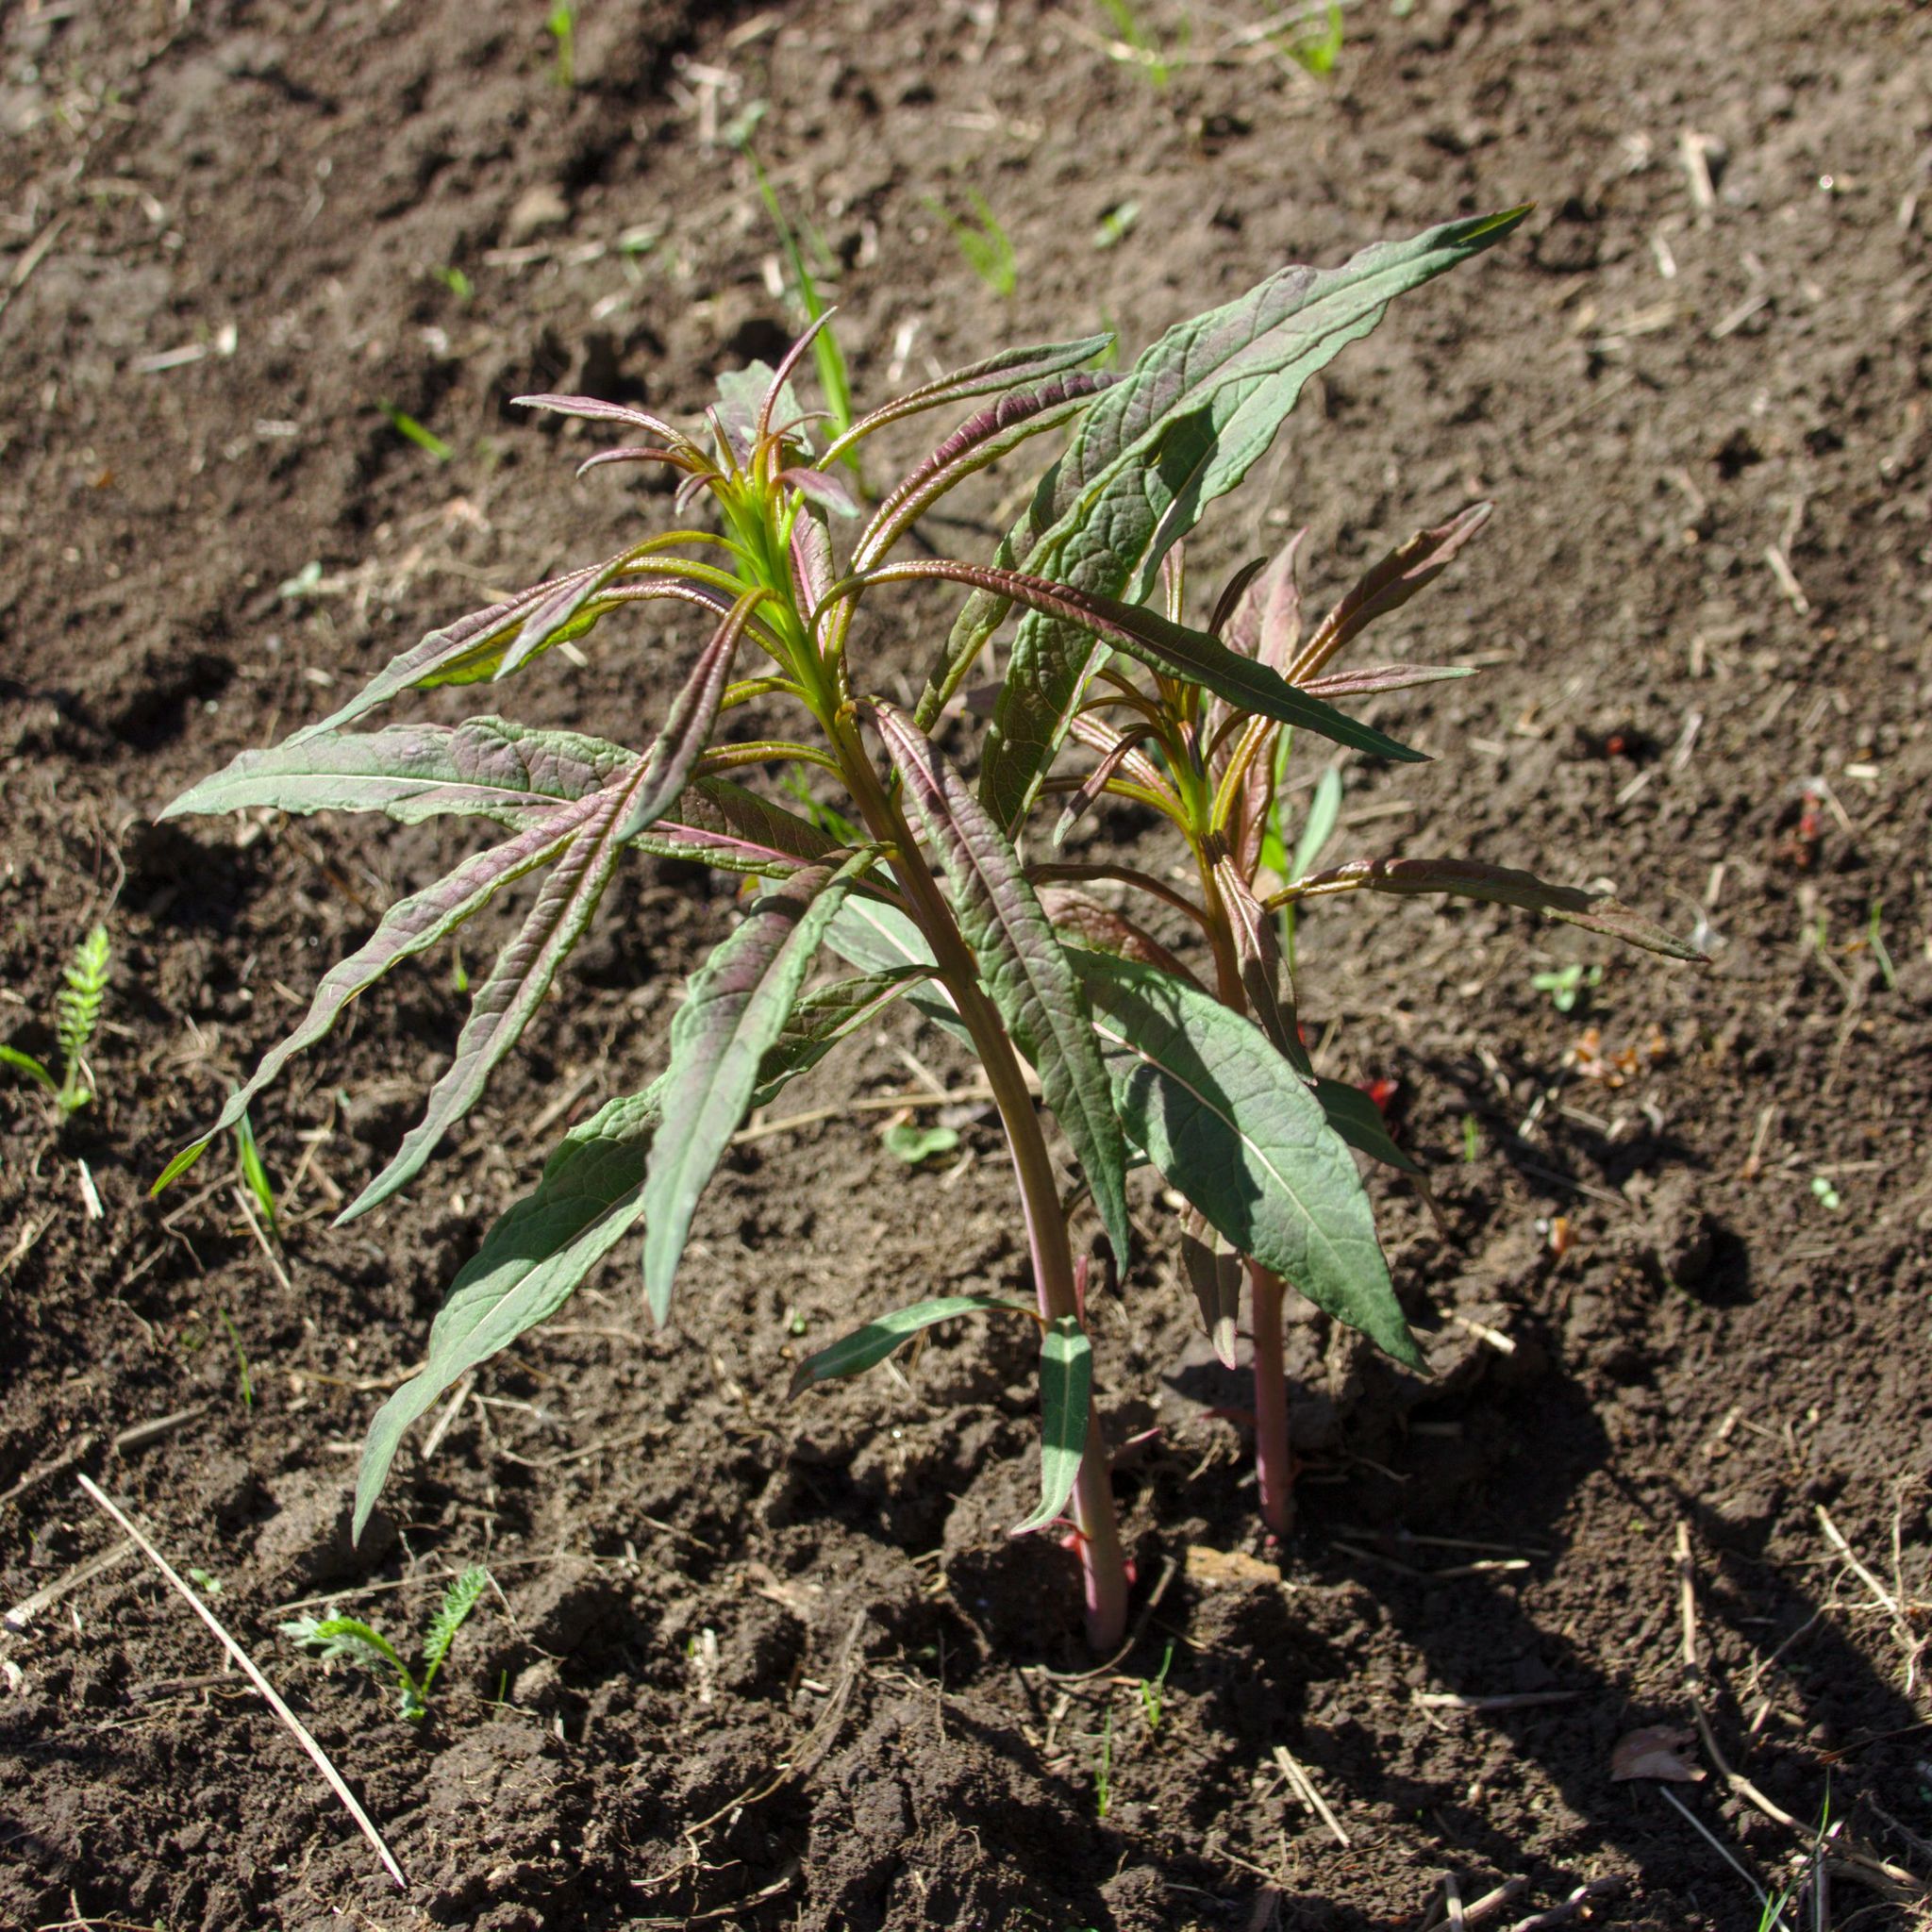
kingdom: Plantae
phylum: Tracheophyta
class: Magnoliopsida
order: Myrtales
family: Onagraceae
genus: Chamaenerion
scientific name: Chamaenerion angustifolium
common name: Fireweed
